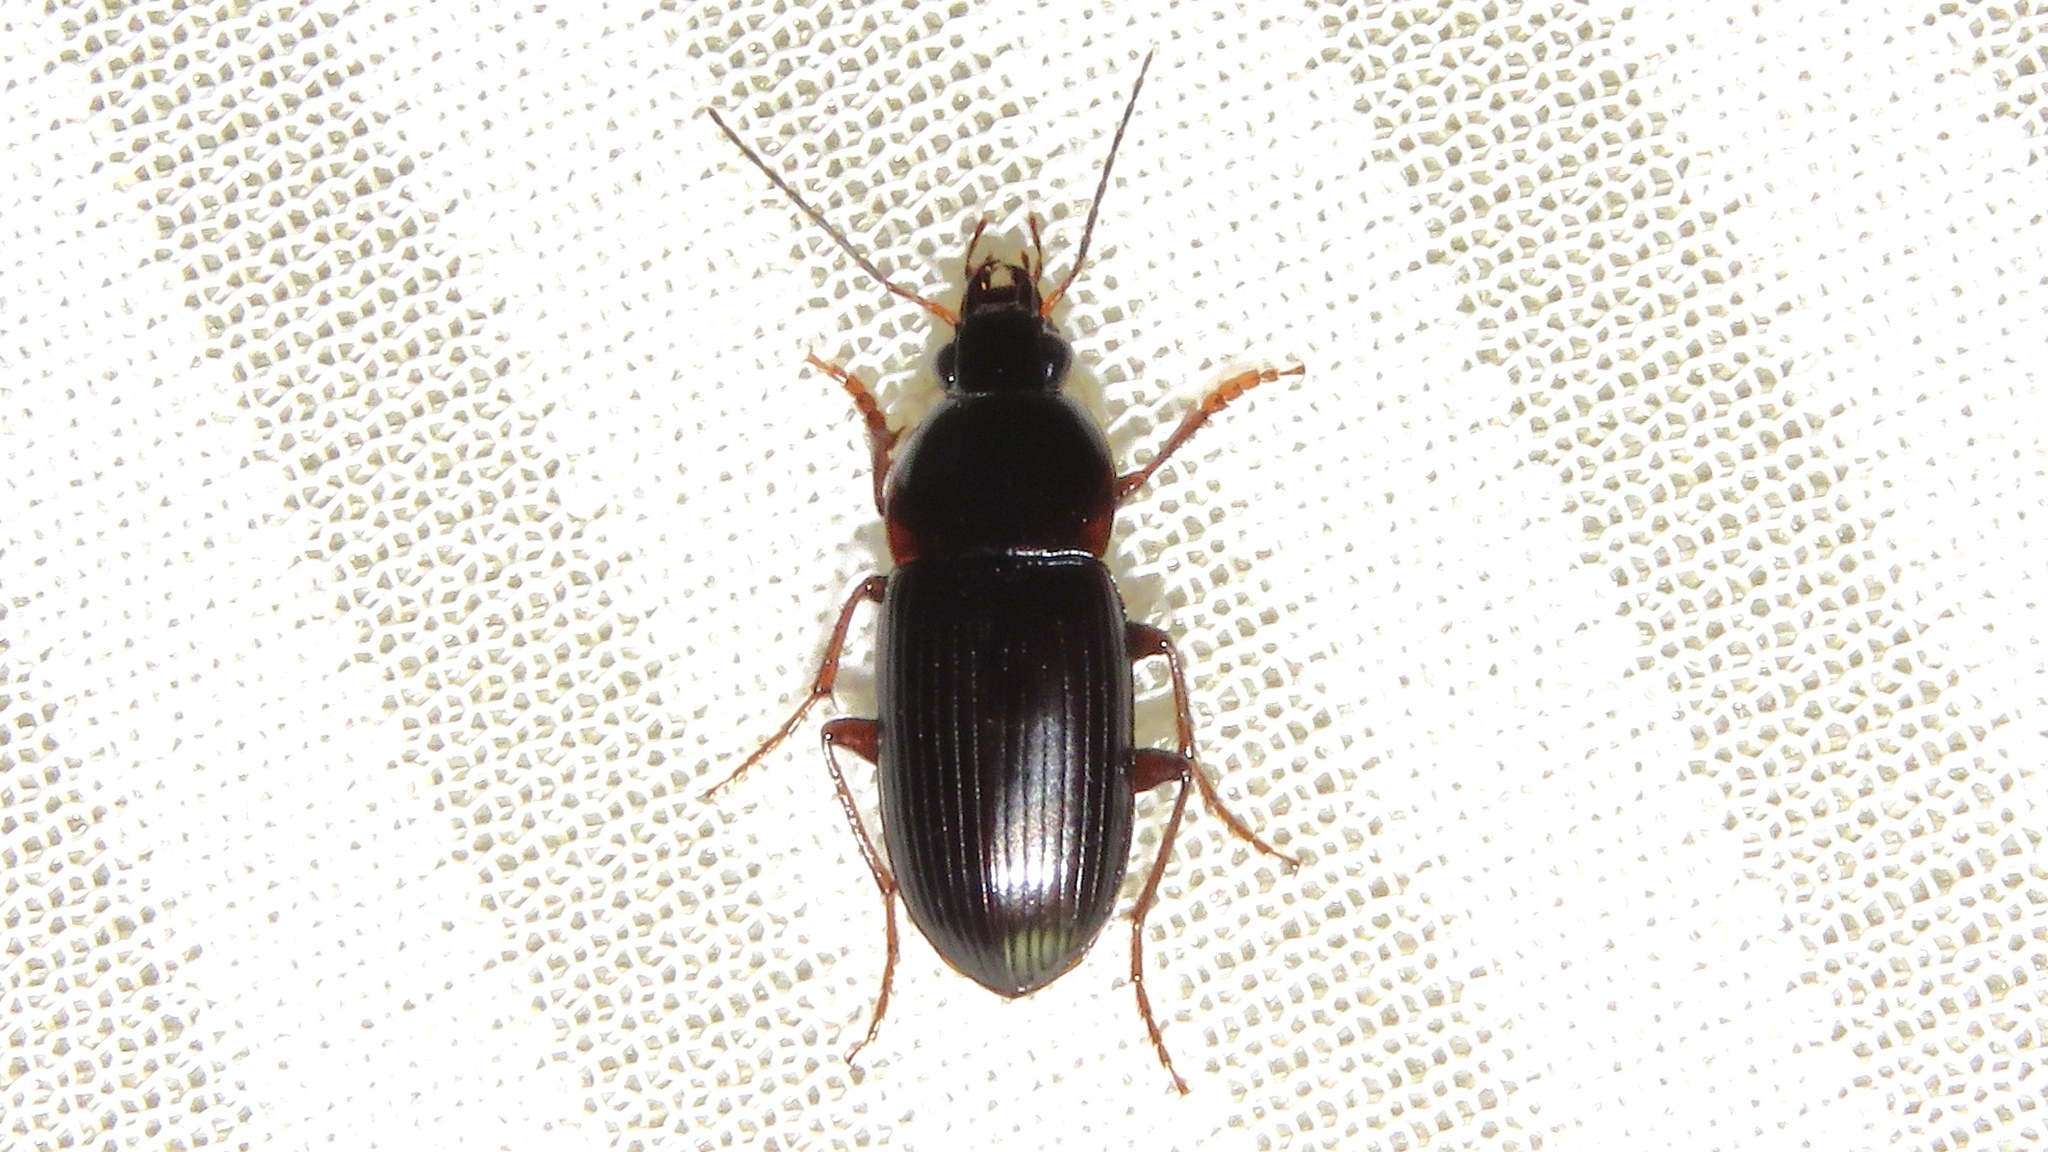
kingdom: Animalia
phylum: Arthropoda
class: Insecta
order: Coleoptera
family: Carabidae
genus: Oodes
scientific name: Oodes parallelus
